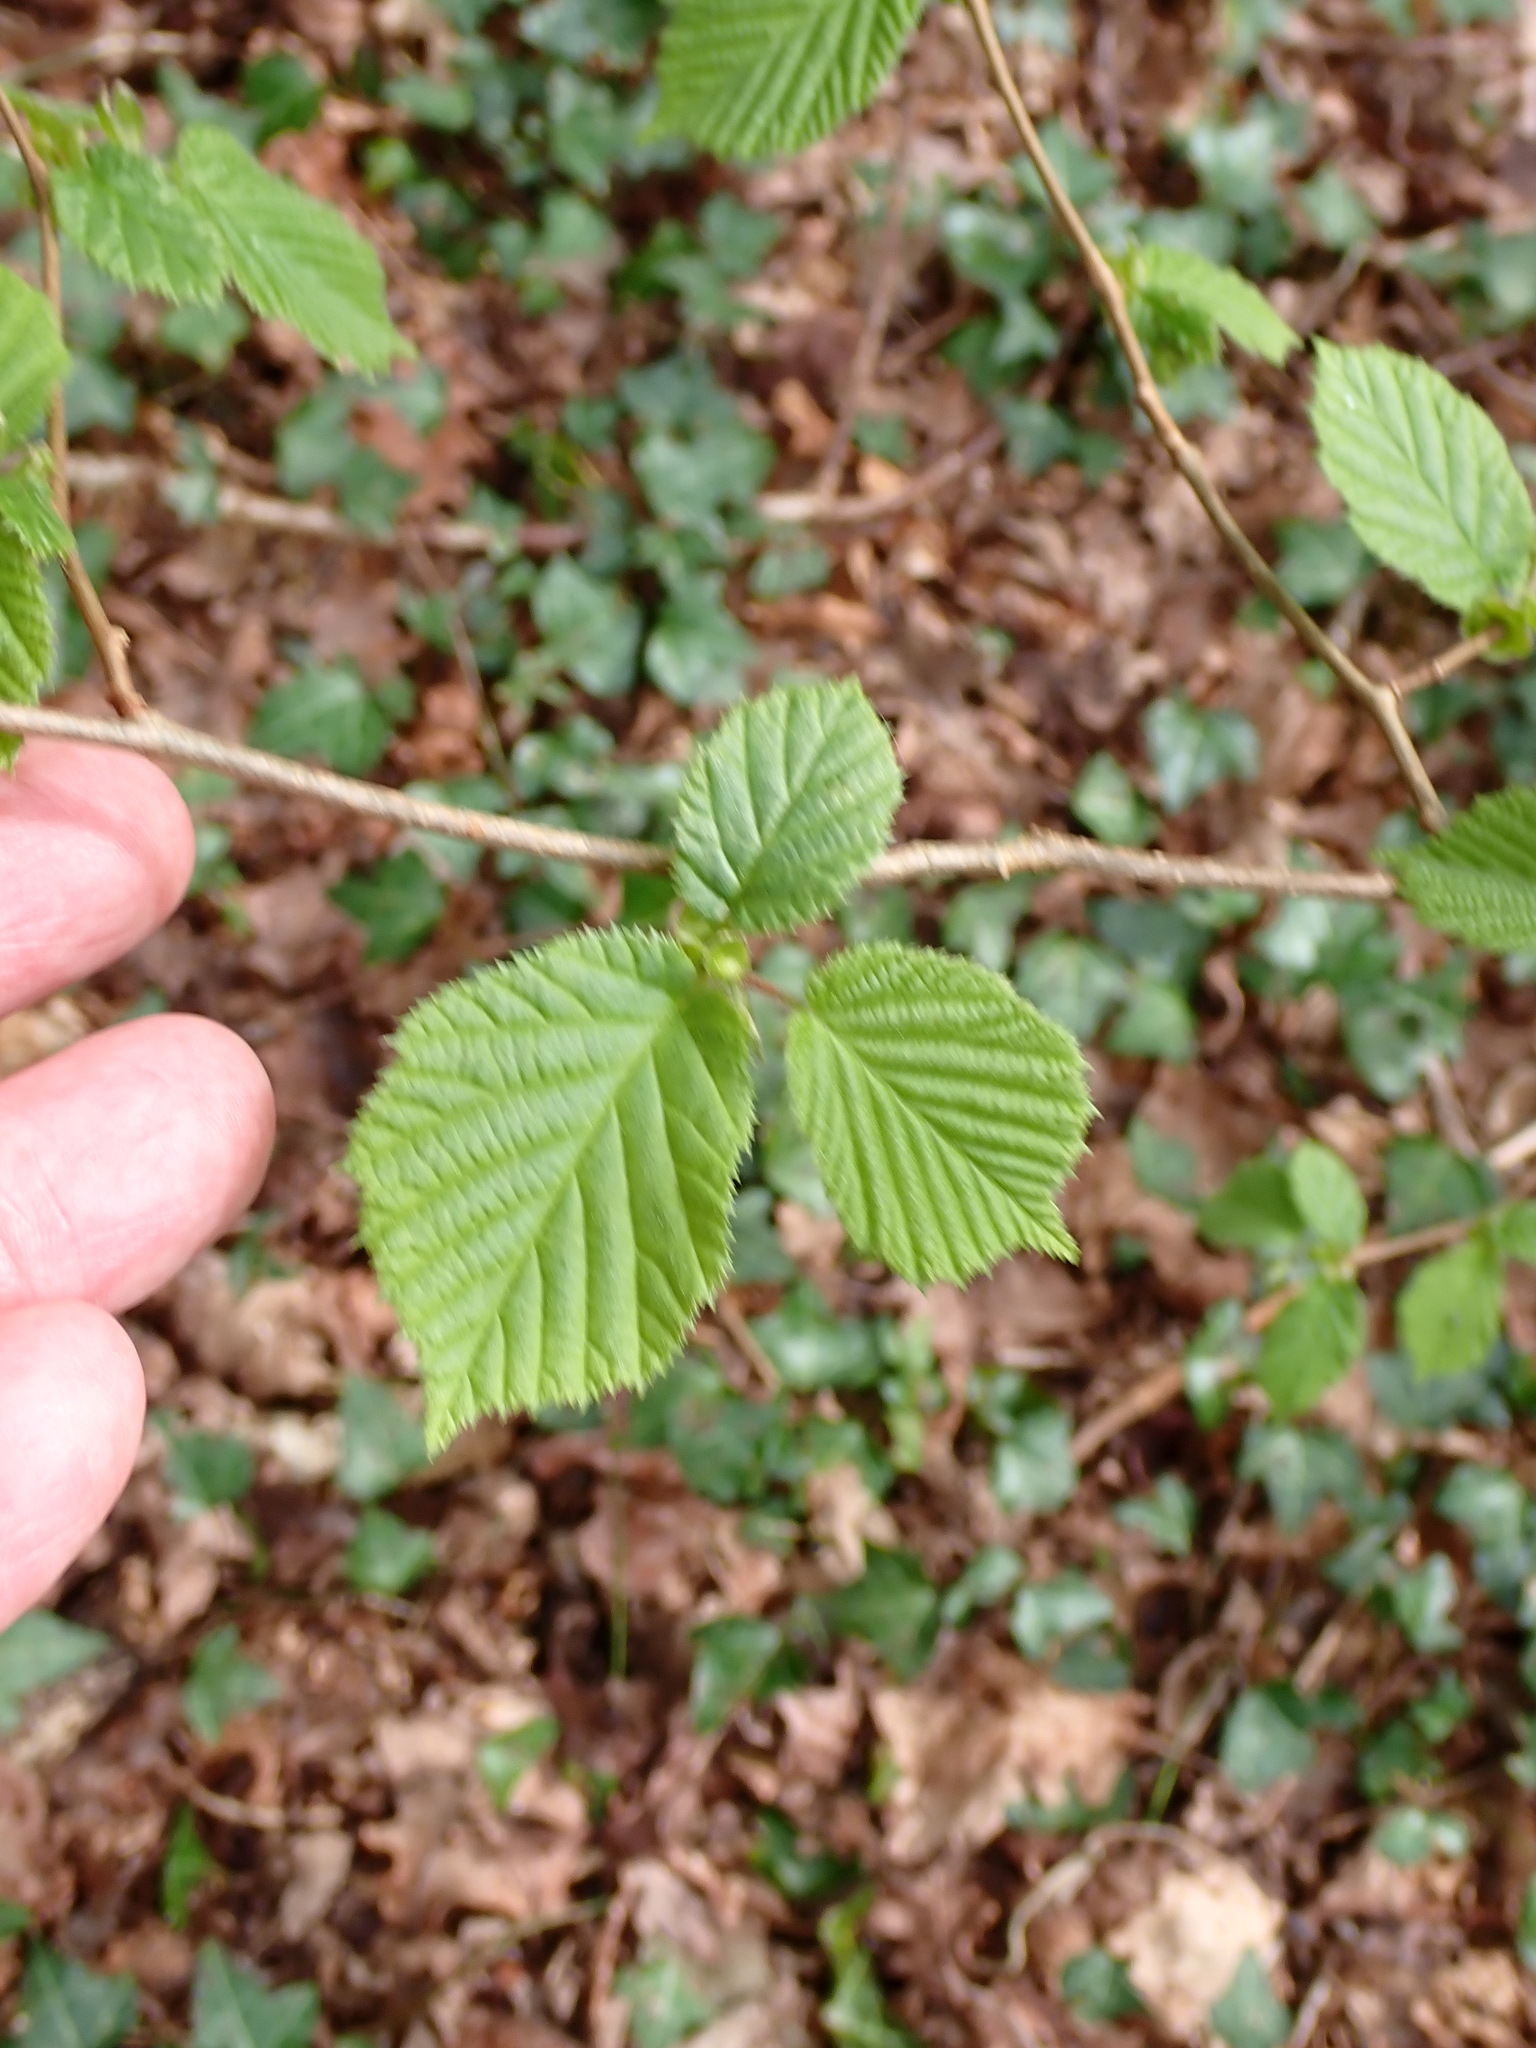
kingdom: Plantae
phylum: Tracheophyta
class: Magnoliopsida
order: Fagales
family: Betulaceae
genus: Corylus
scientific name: Corylus avellana
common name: European hazel
